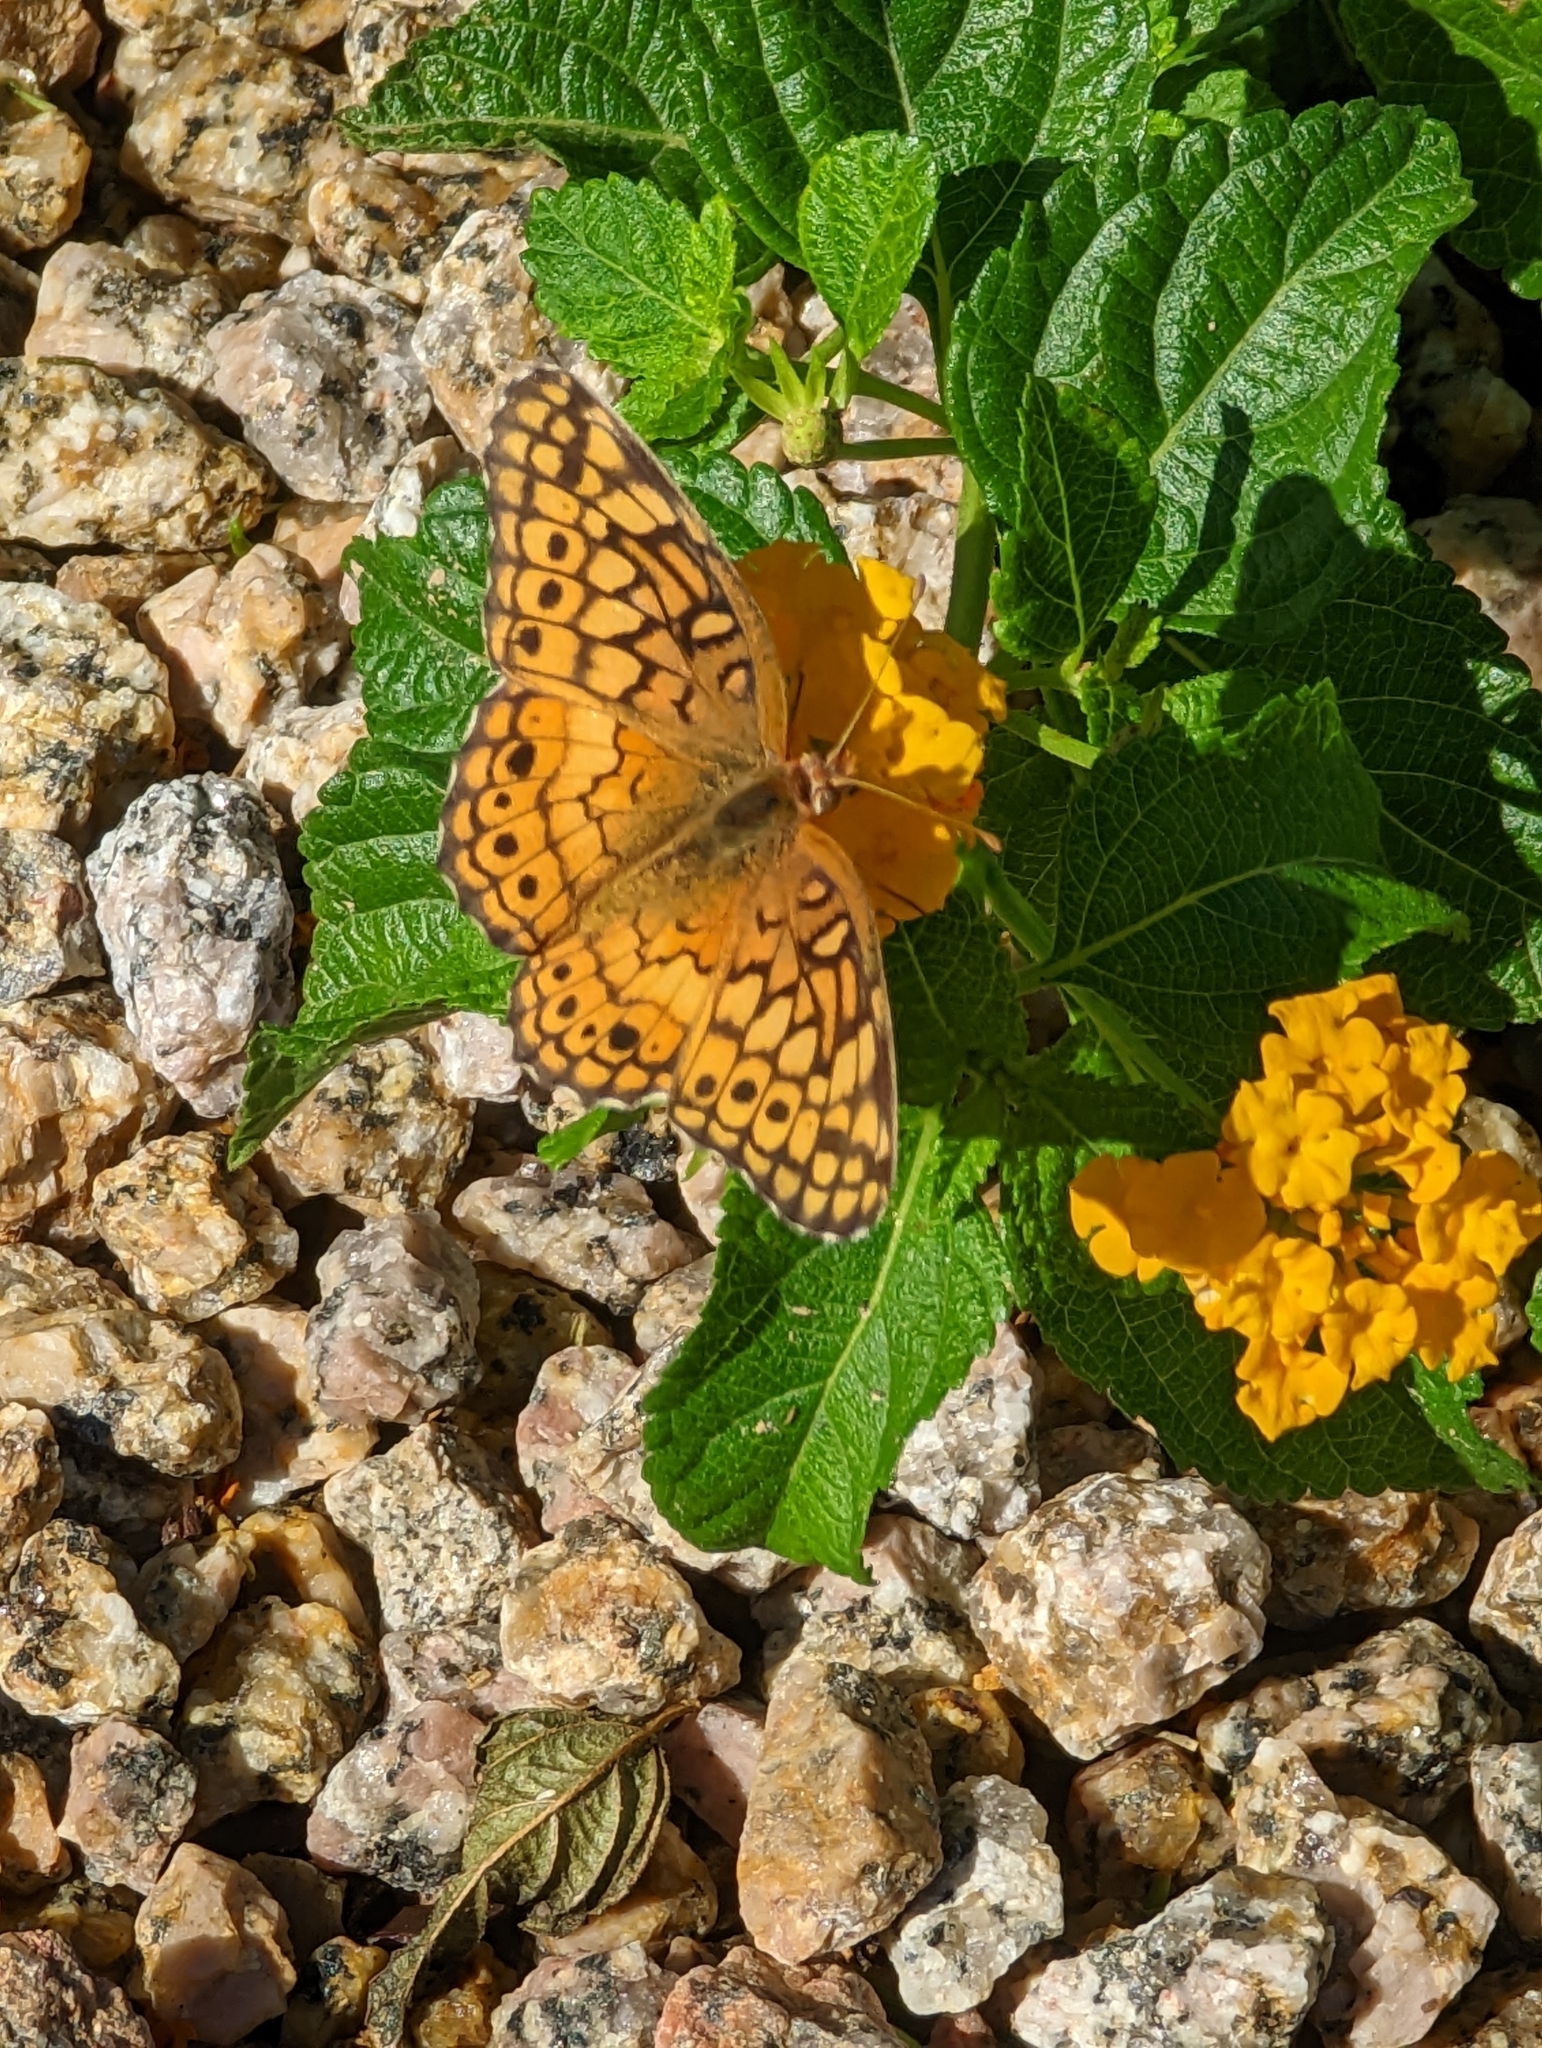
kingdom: Animalia
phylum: Arthropoda
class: Insecta
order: Lepidoptera
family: Nymphalidae
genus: Euptoieta
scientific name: Euptoieta claudia
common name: Variegated fritillary
